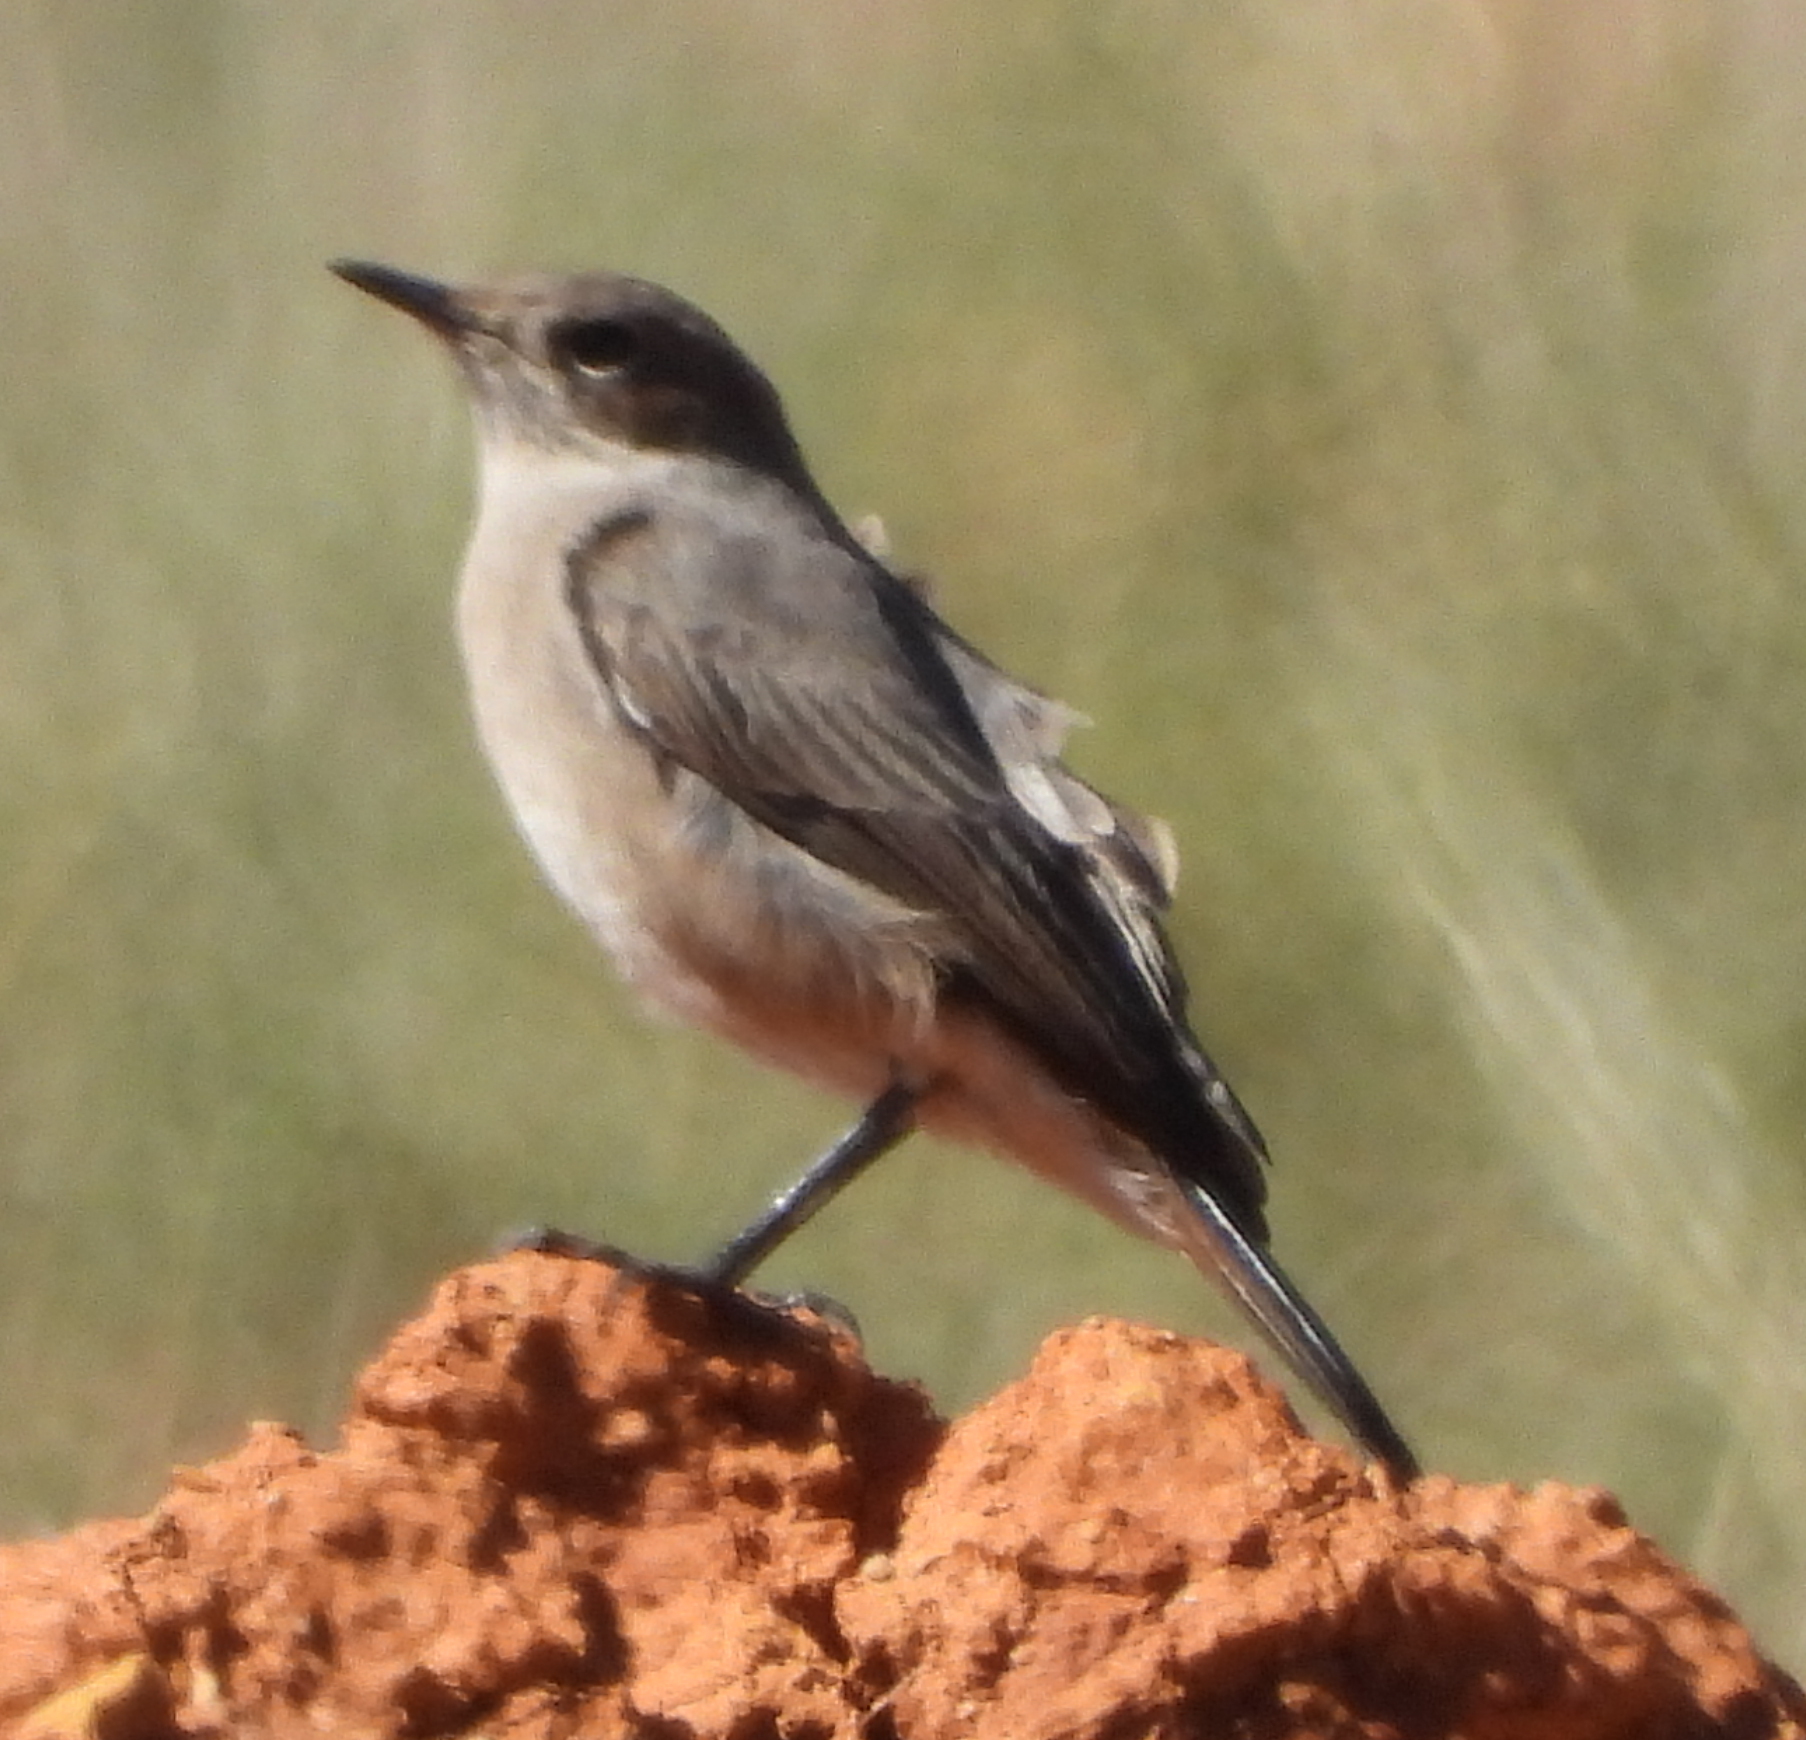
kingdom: Animalia
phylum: Chordata
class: Aves
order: Passeriformes
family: Muscicapidae
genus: Oenanthe
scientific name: Oenanthe familiaris
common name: Familiar chat
